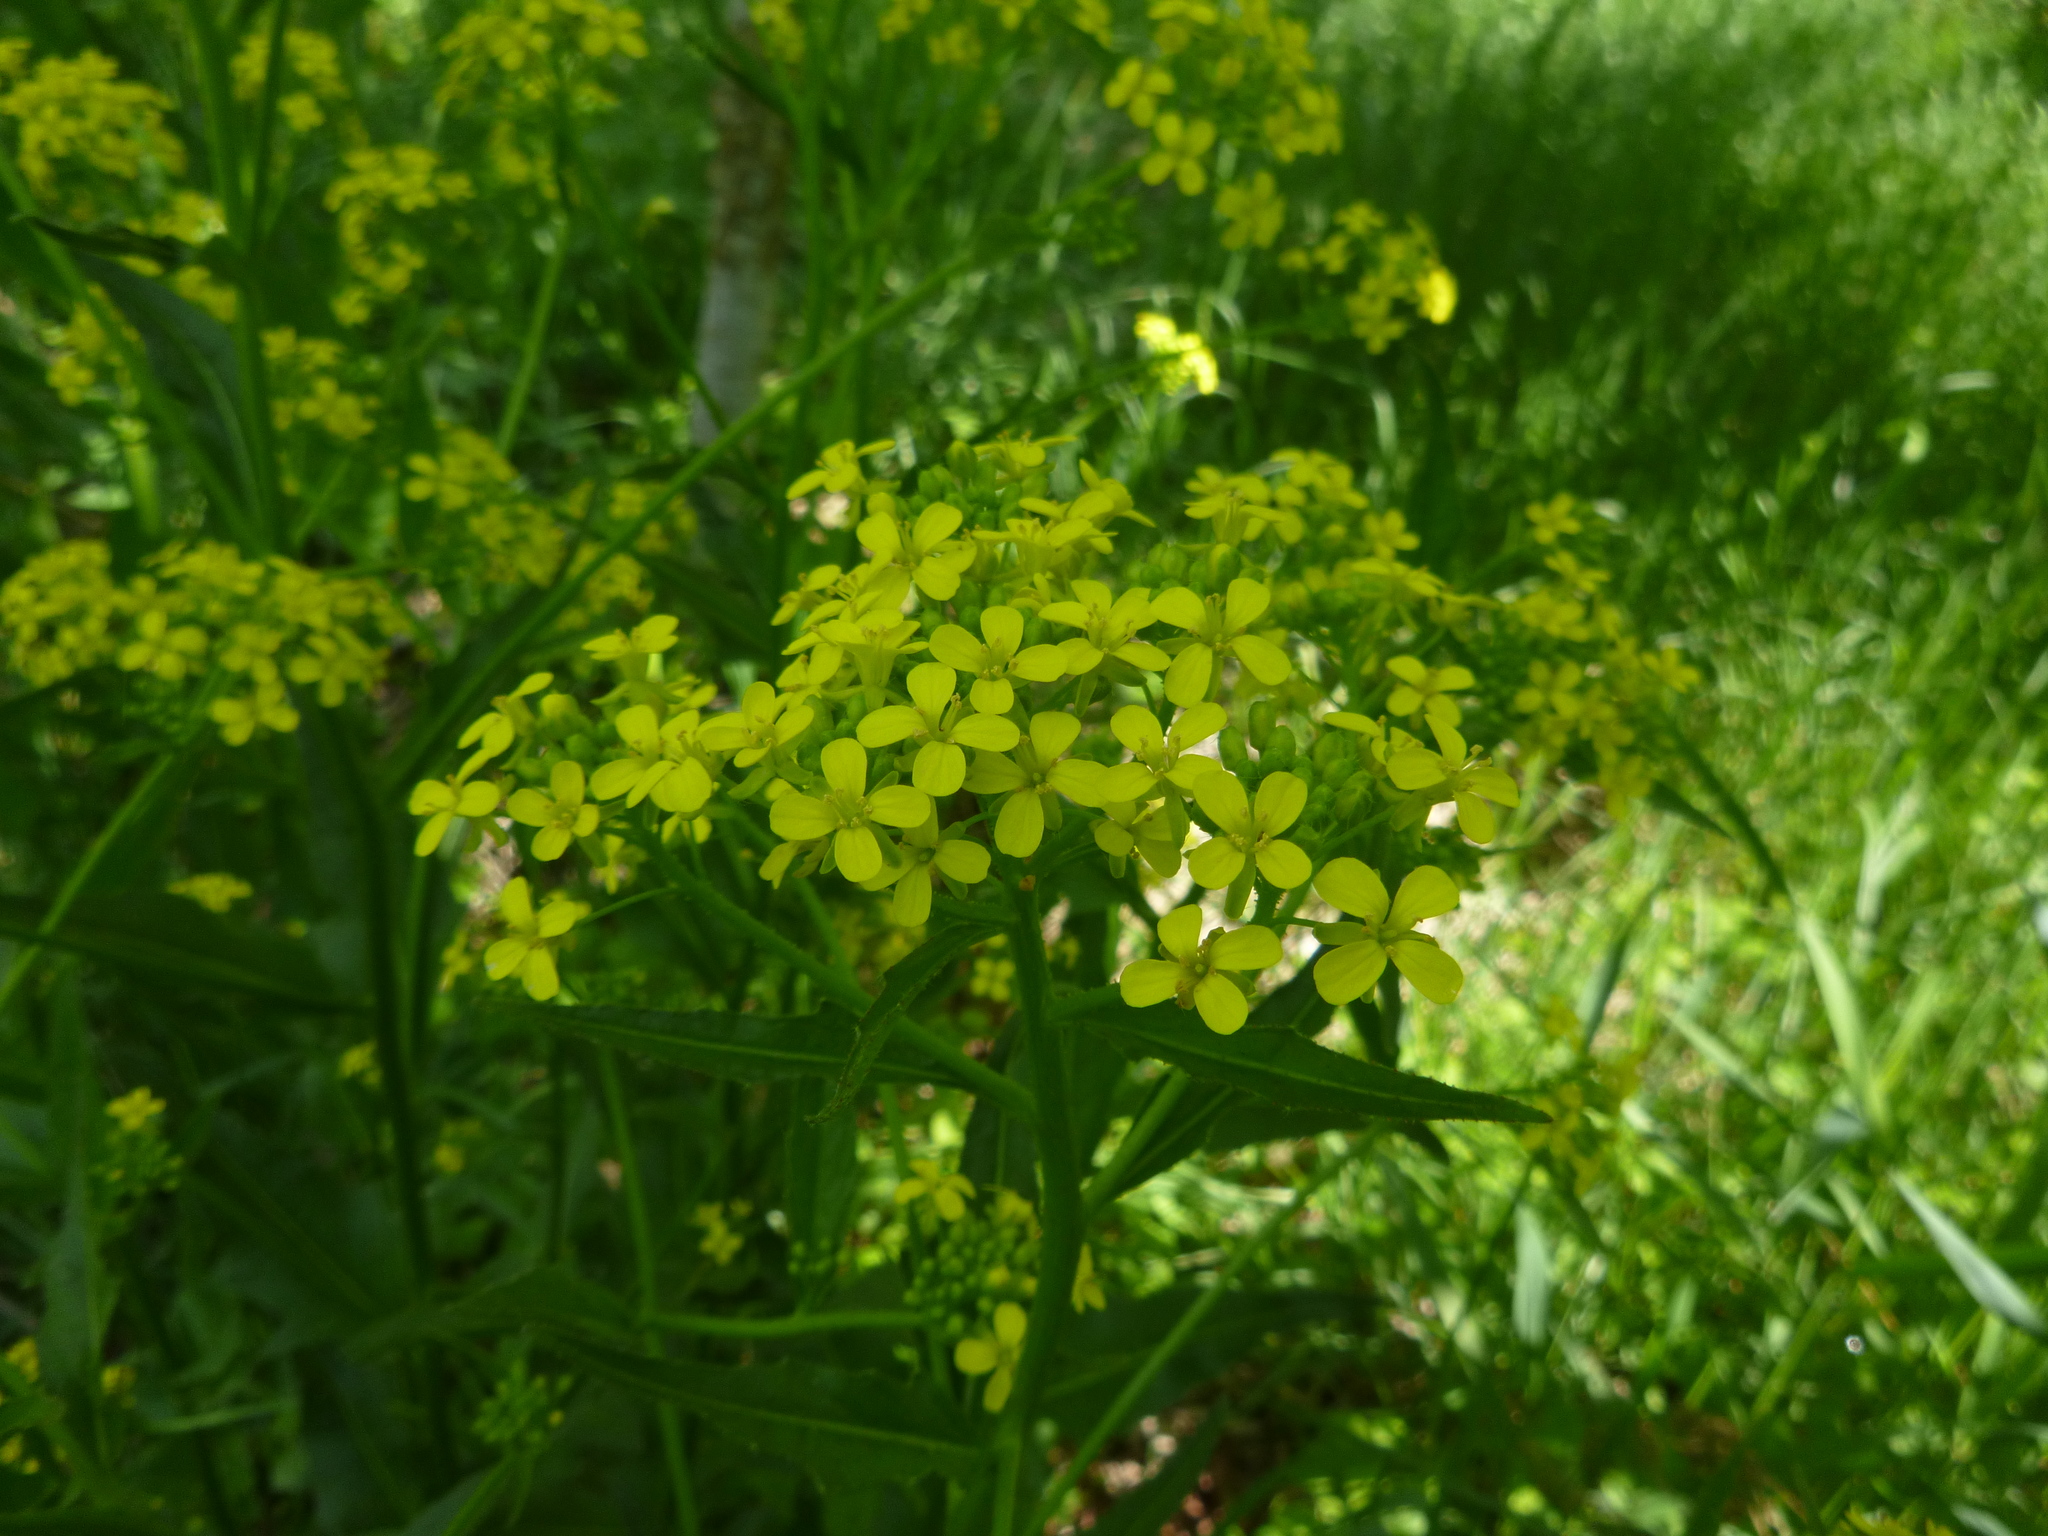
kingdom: Plantae
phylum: Tracheophyta
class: Magnoliopsida
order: Brassicales
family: Brassicaceae
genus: Bunias
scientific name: Bunias orientalis
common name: Warty-cabbage
